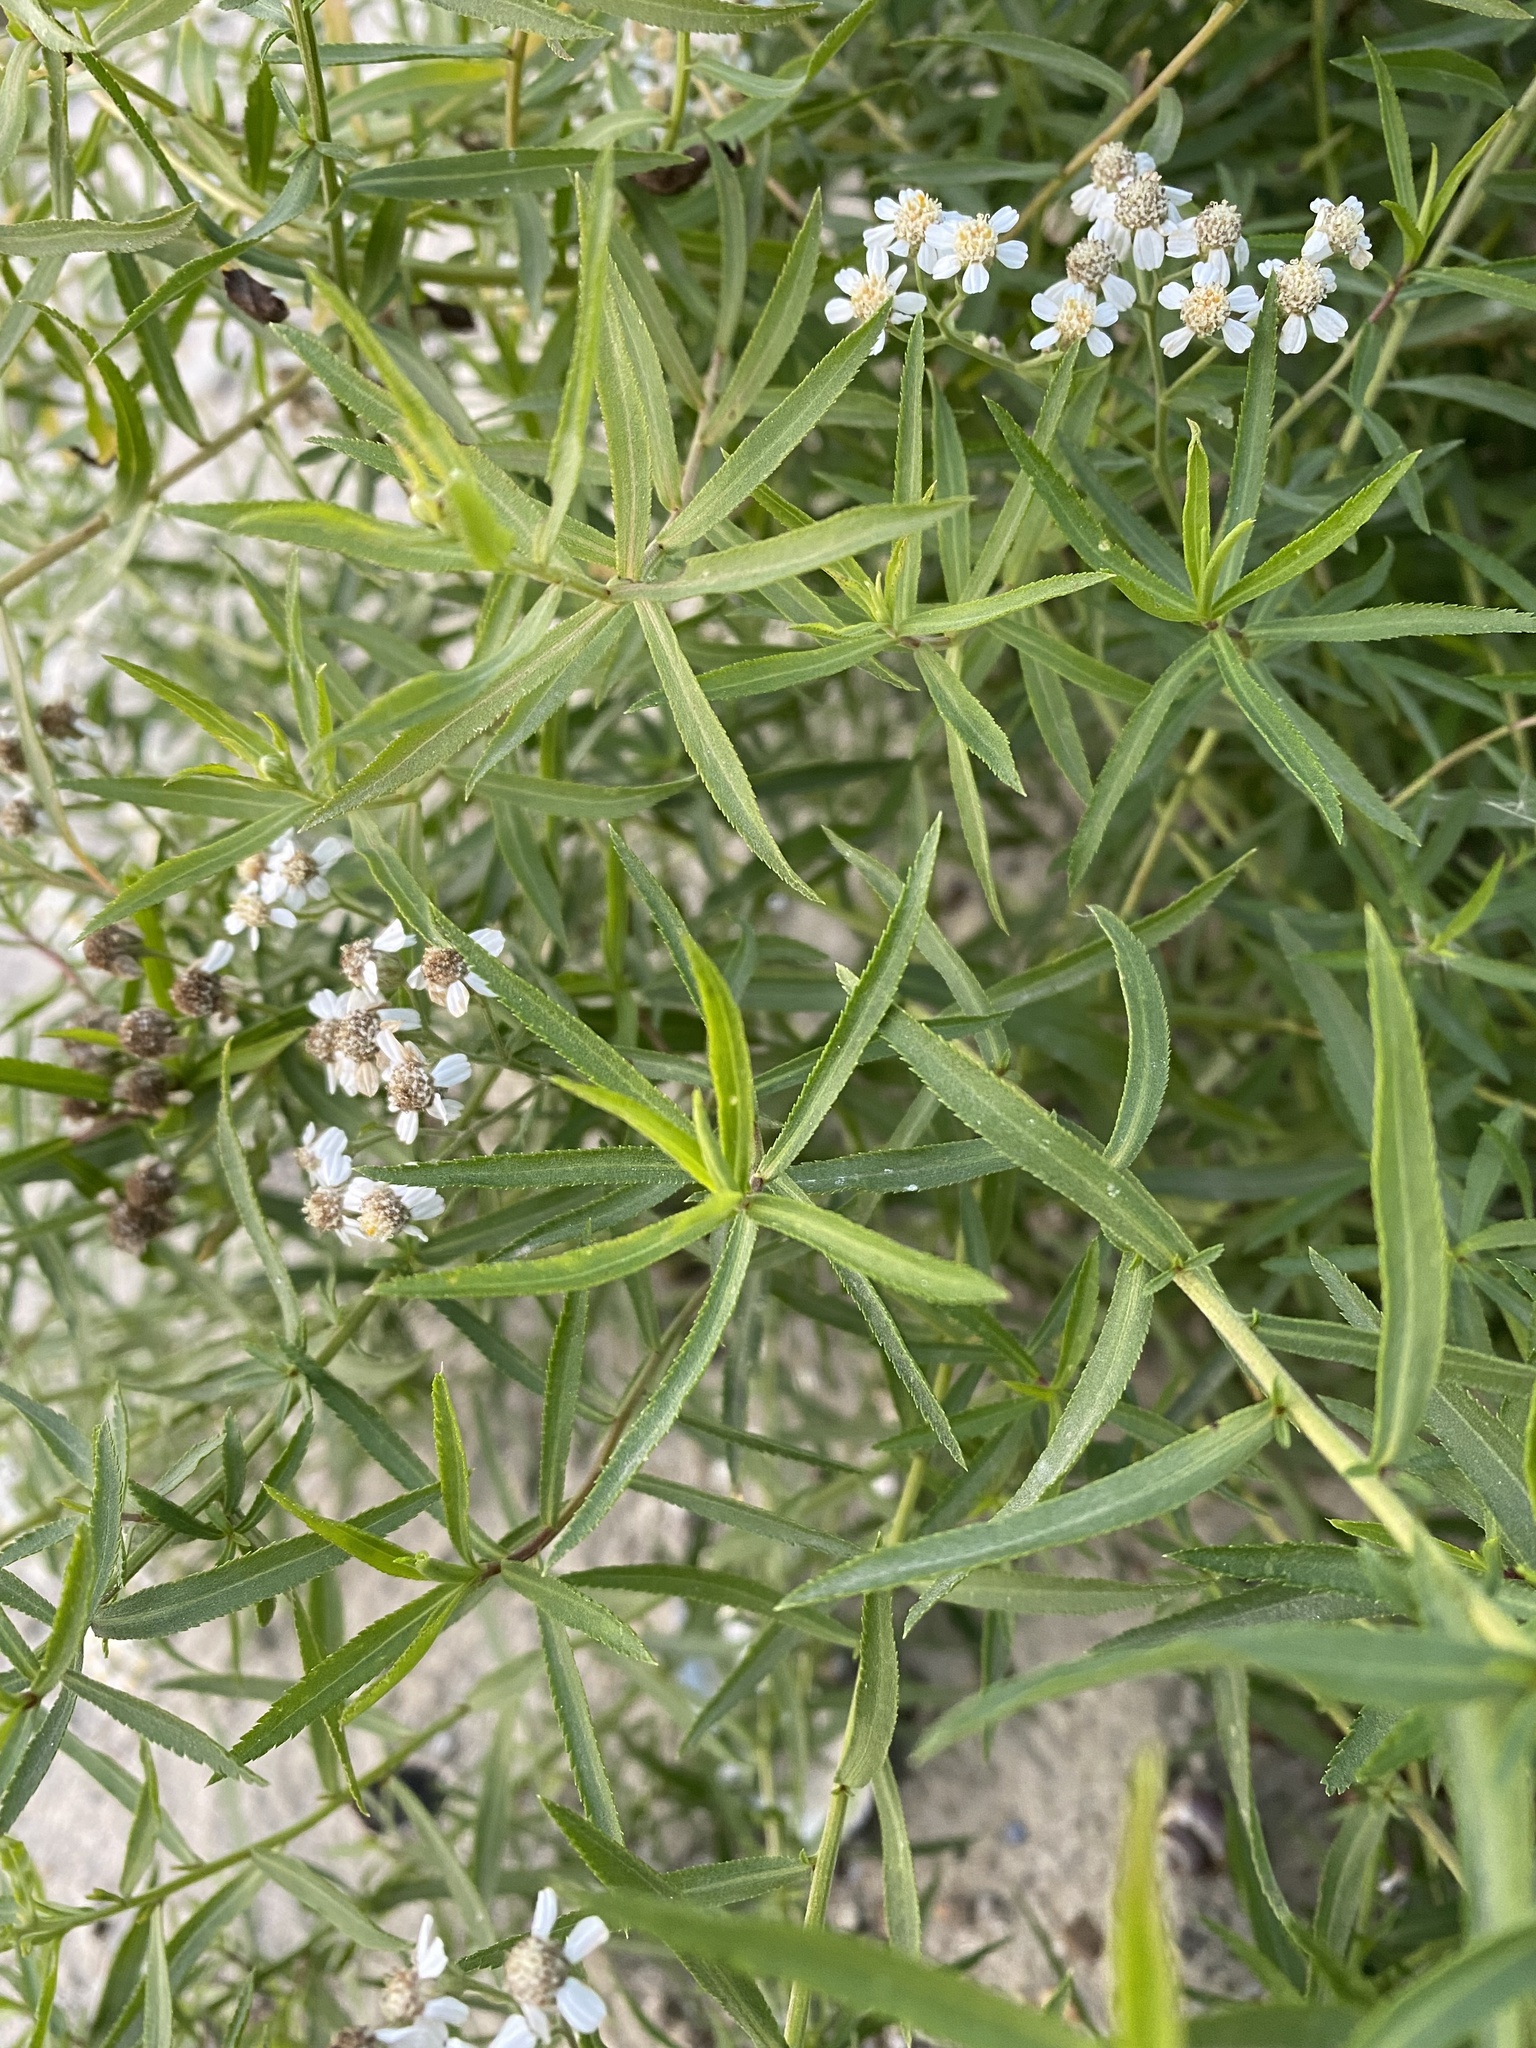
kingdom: Plantae
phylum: Tracheophyta
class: Magnoliopsida
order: Asterales
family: Asteraceae
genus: Achillea
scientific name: Achillea salicifolia
